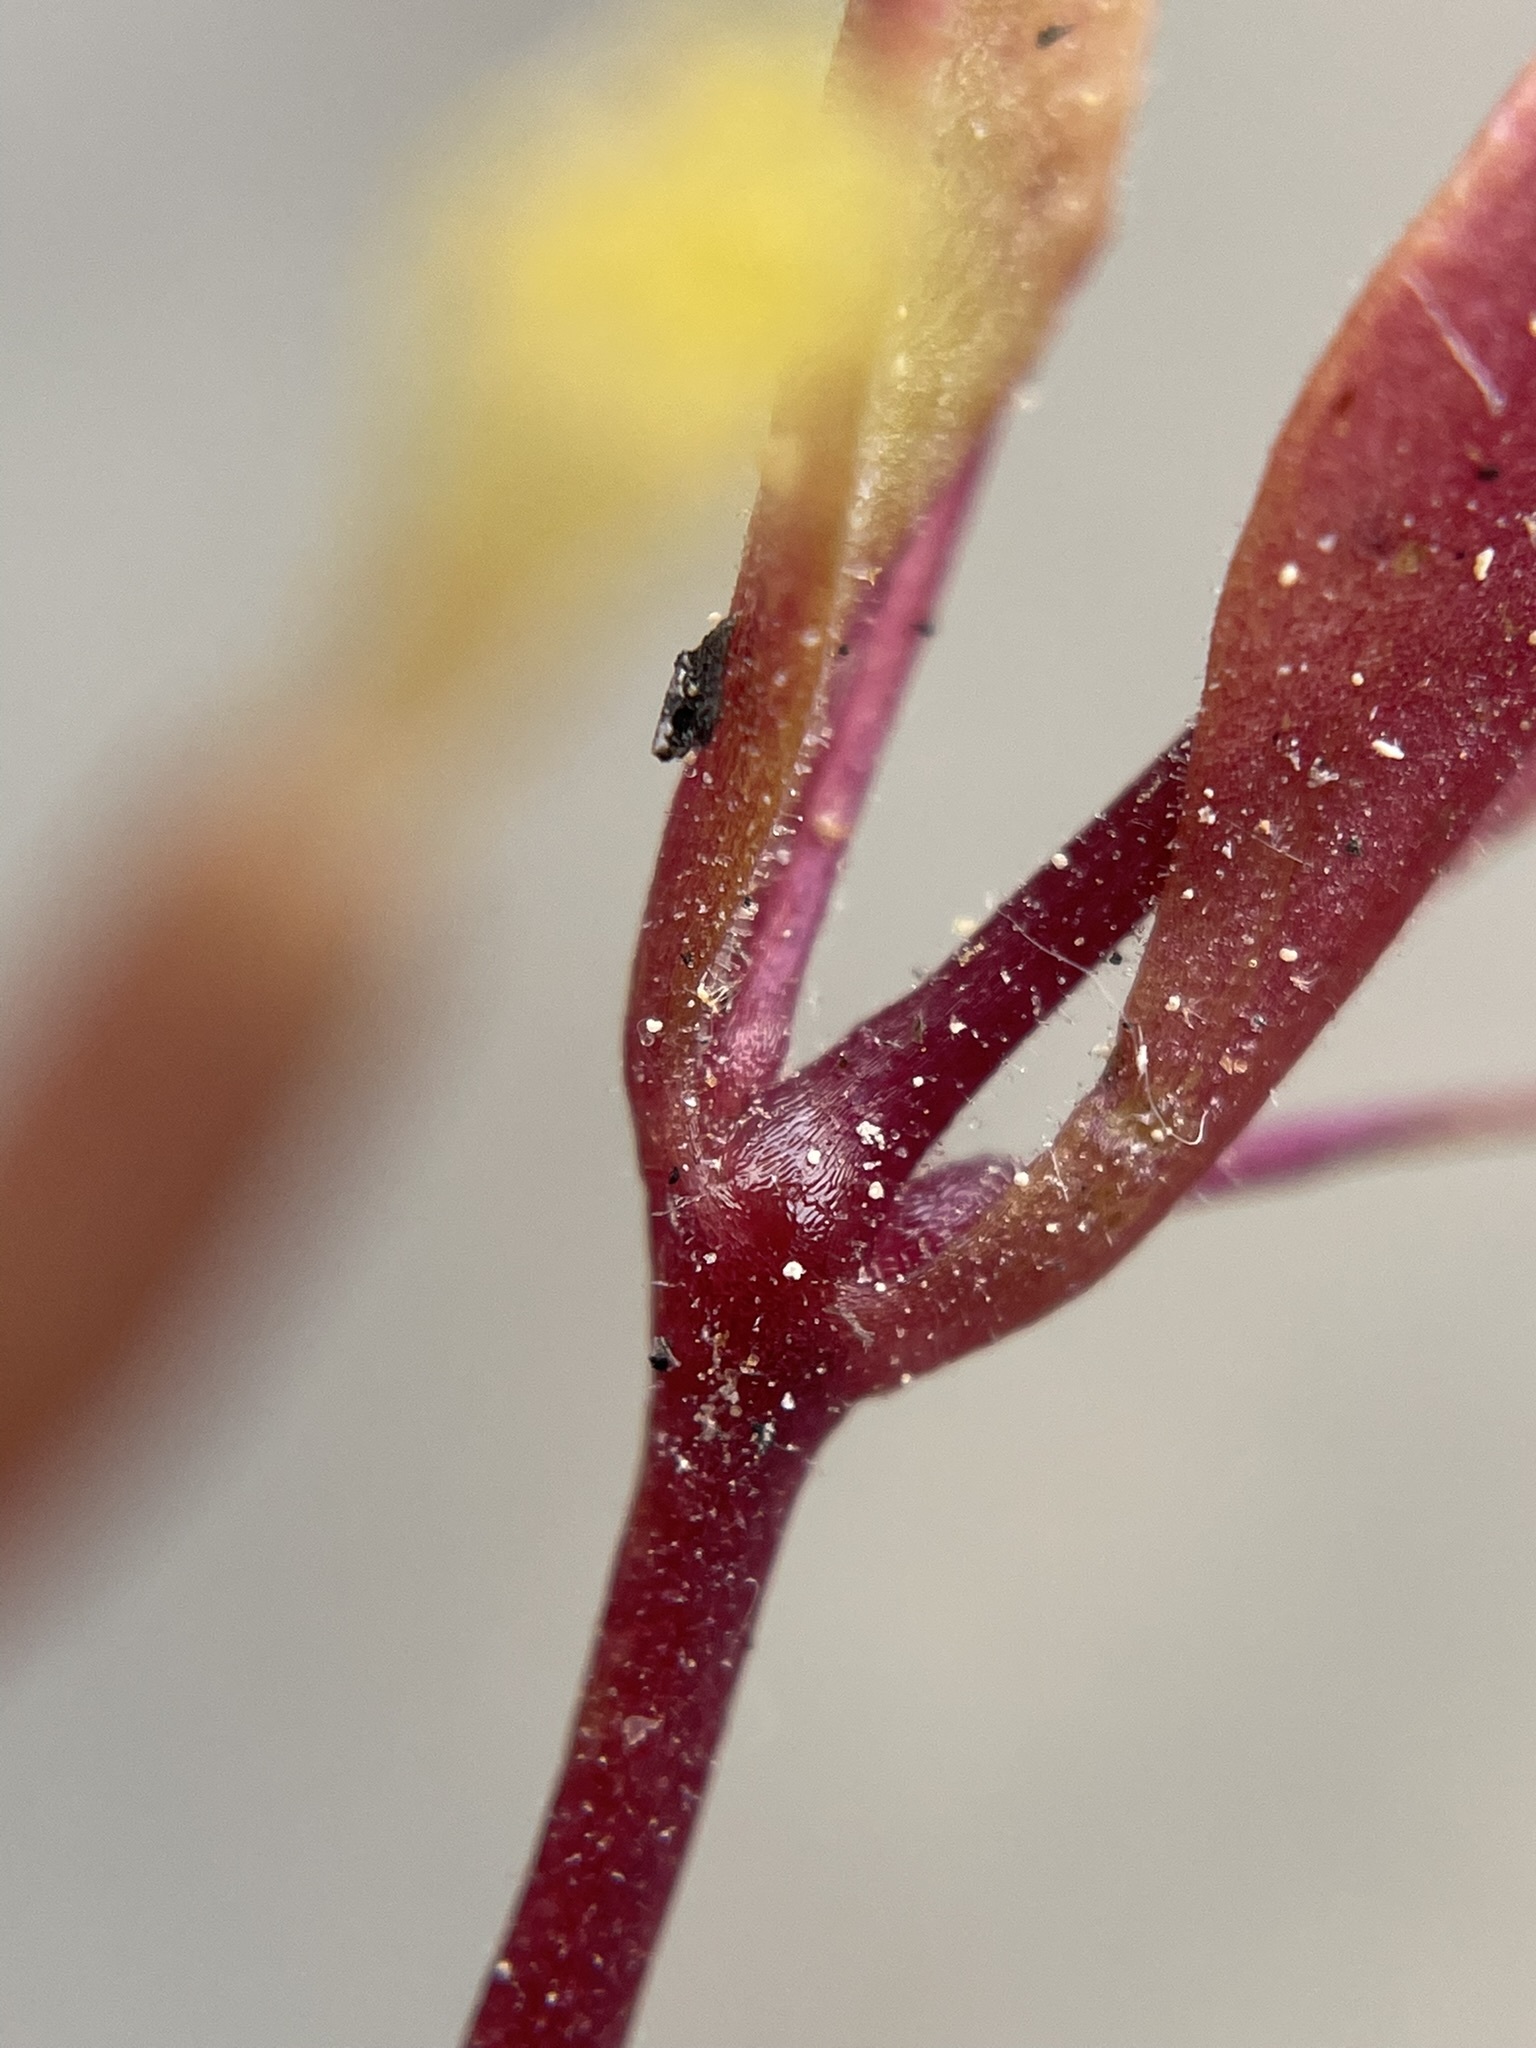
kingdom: Plantae
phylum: Tracheophyta
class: Magnoliopsida
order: Lamiales
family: Phrymaceae
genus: Erythranthe
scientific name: Erythranthe taylorii
